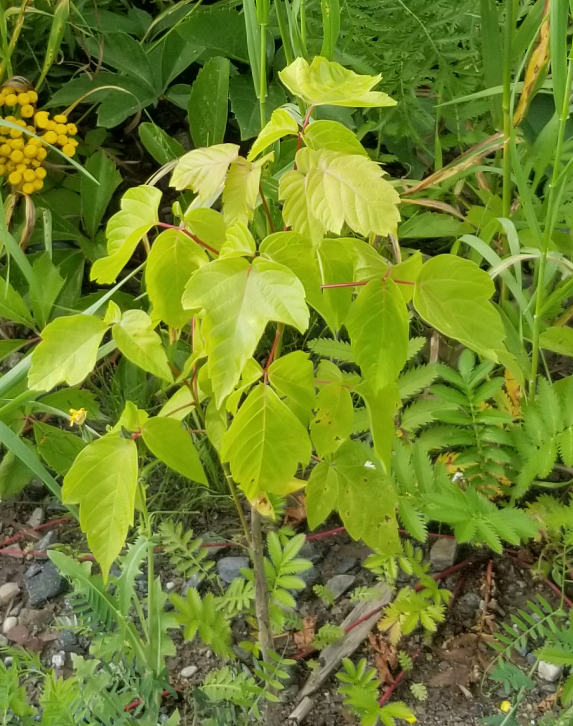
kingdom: Plantae
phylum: Tracheophyta
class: Magnoliopsida
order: Sapindales
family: Sapindaceae
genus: Acer
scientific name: Acer negundo
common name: Ashleaf maple
